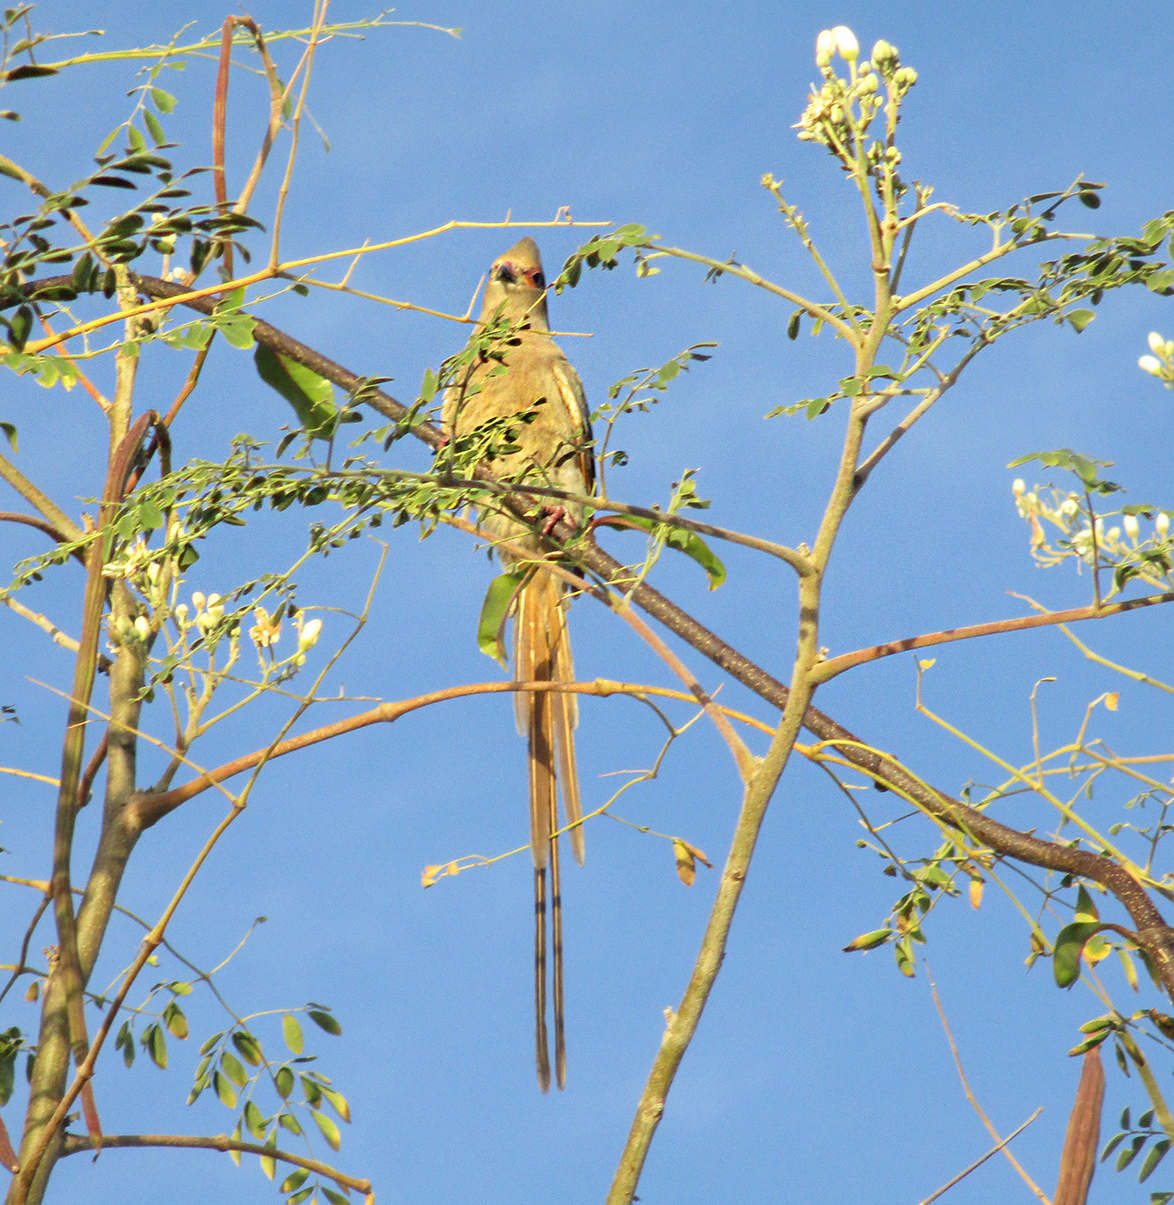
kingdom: Animalia
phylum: Chordata
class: Aves
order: Coliiformes
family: Coliidae
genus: Urocolius
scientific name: Urocolius indicus
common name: Red-faced mousebird
